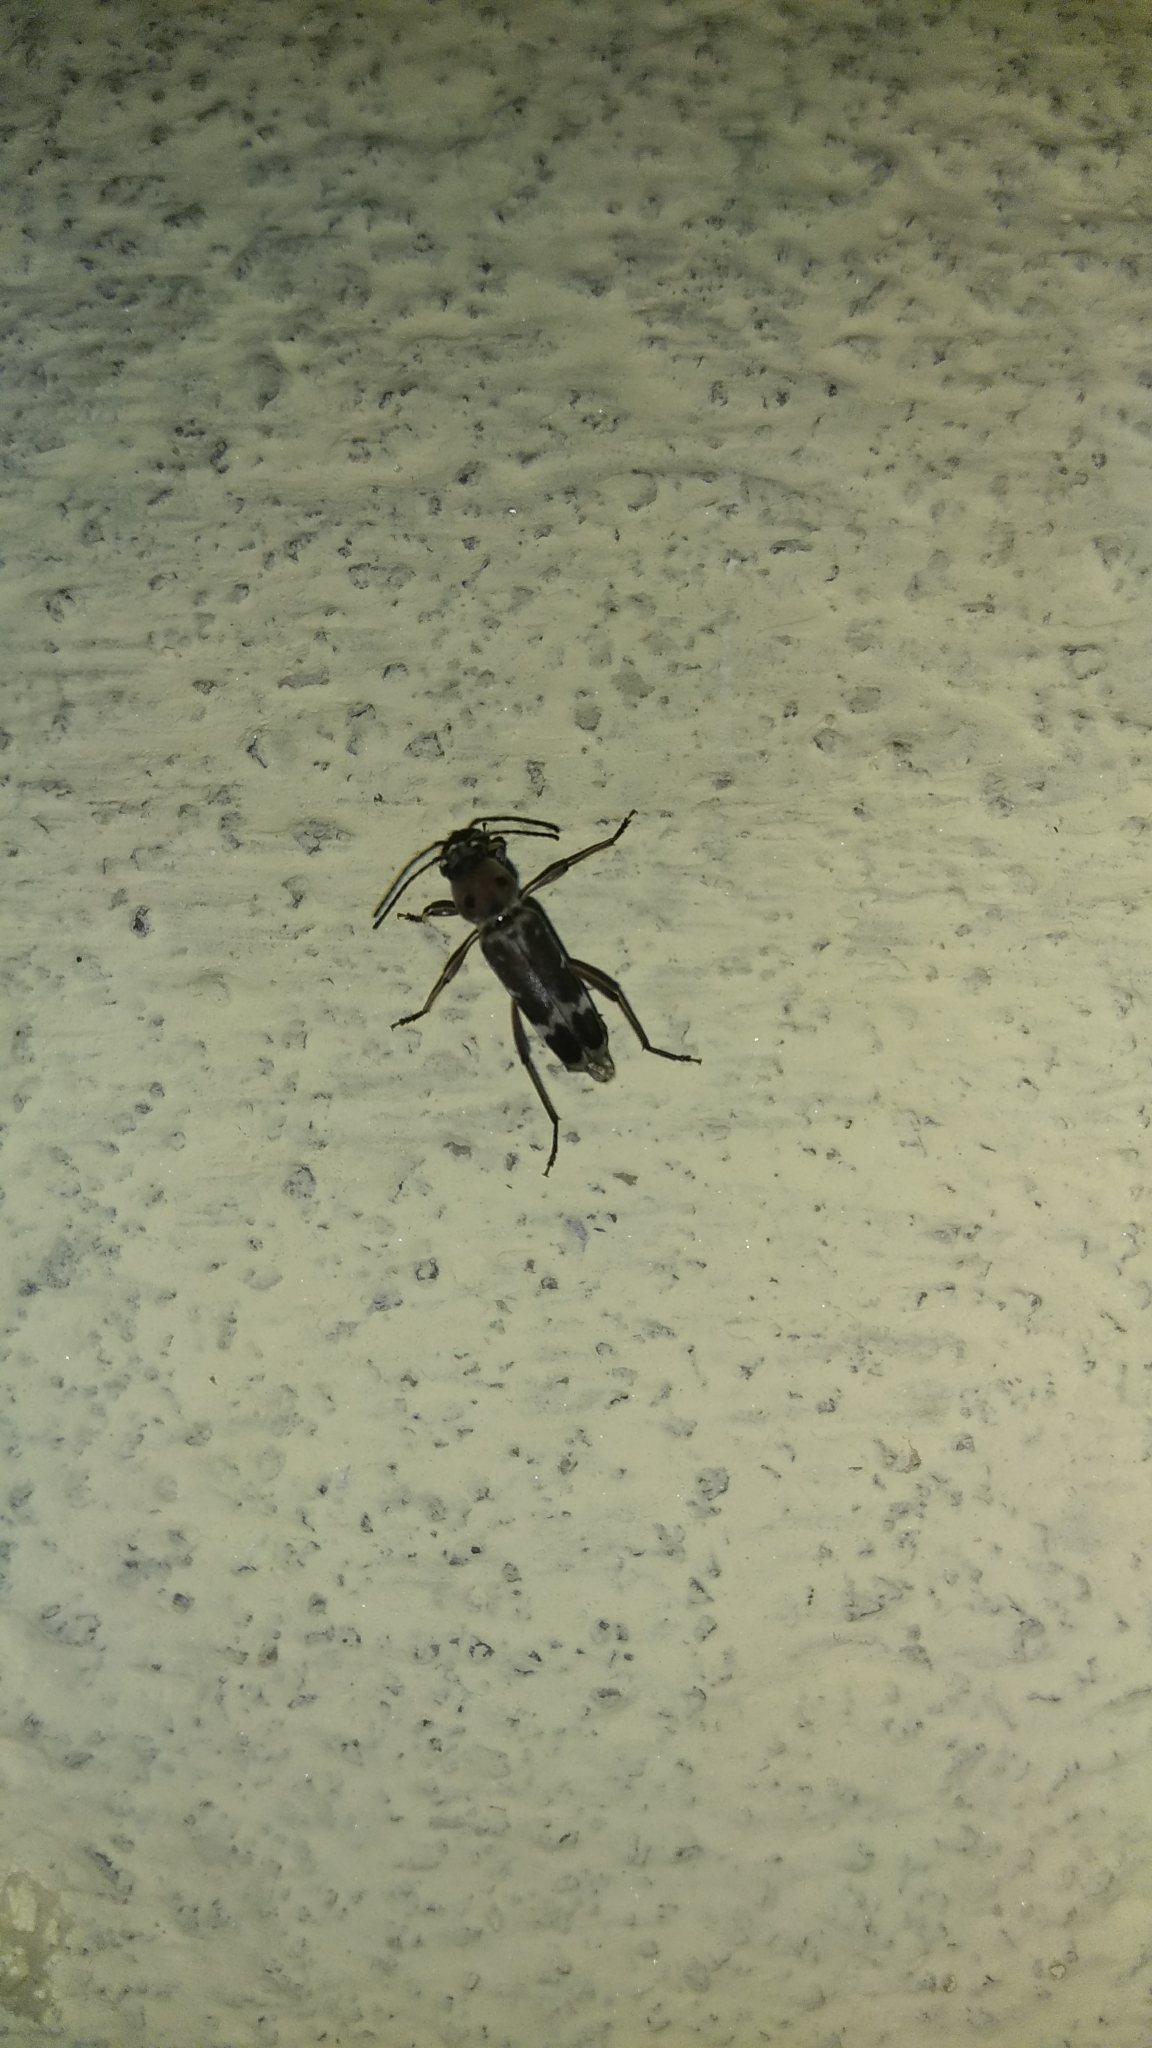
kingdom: Animalia
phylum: Arthropoda
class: Insecta
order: Coleoptera
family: Cerambycidae
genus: Xylotrechus
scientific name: Xylotrechus smei
